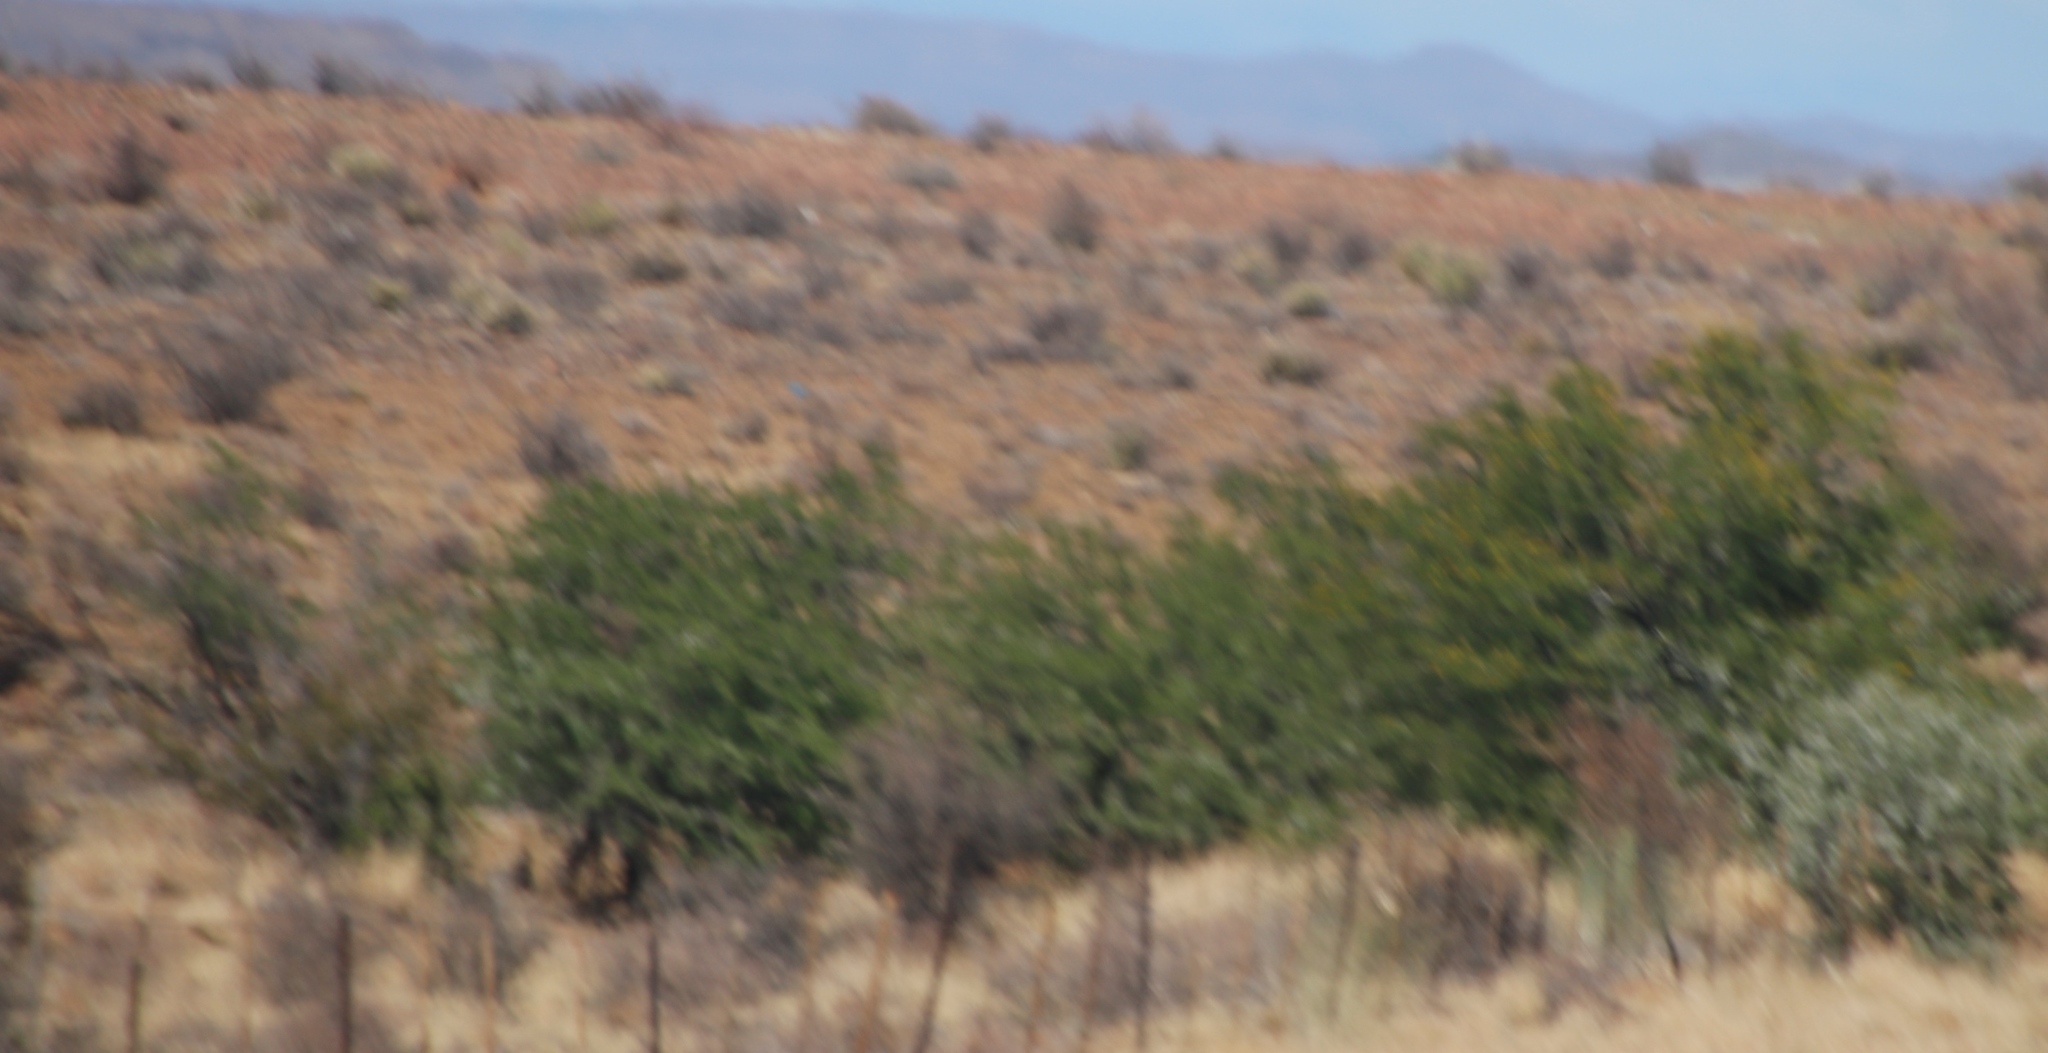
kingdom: Plantae
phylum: Tracheophyta
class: Magnoliopsida
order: Fabales
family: Fabaceae
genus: Vachellia
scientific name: Vachellia karroo
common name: Sweet thorn
